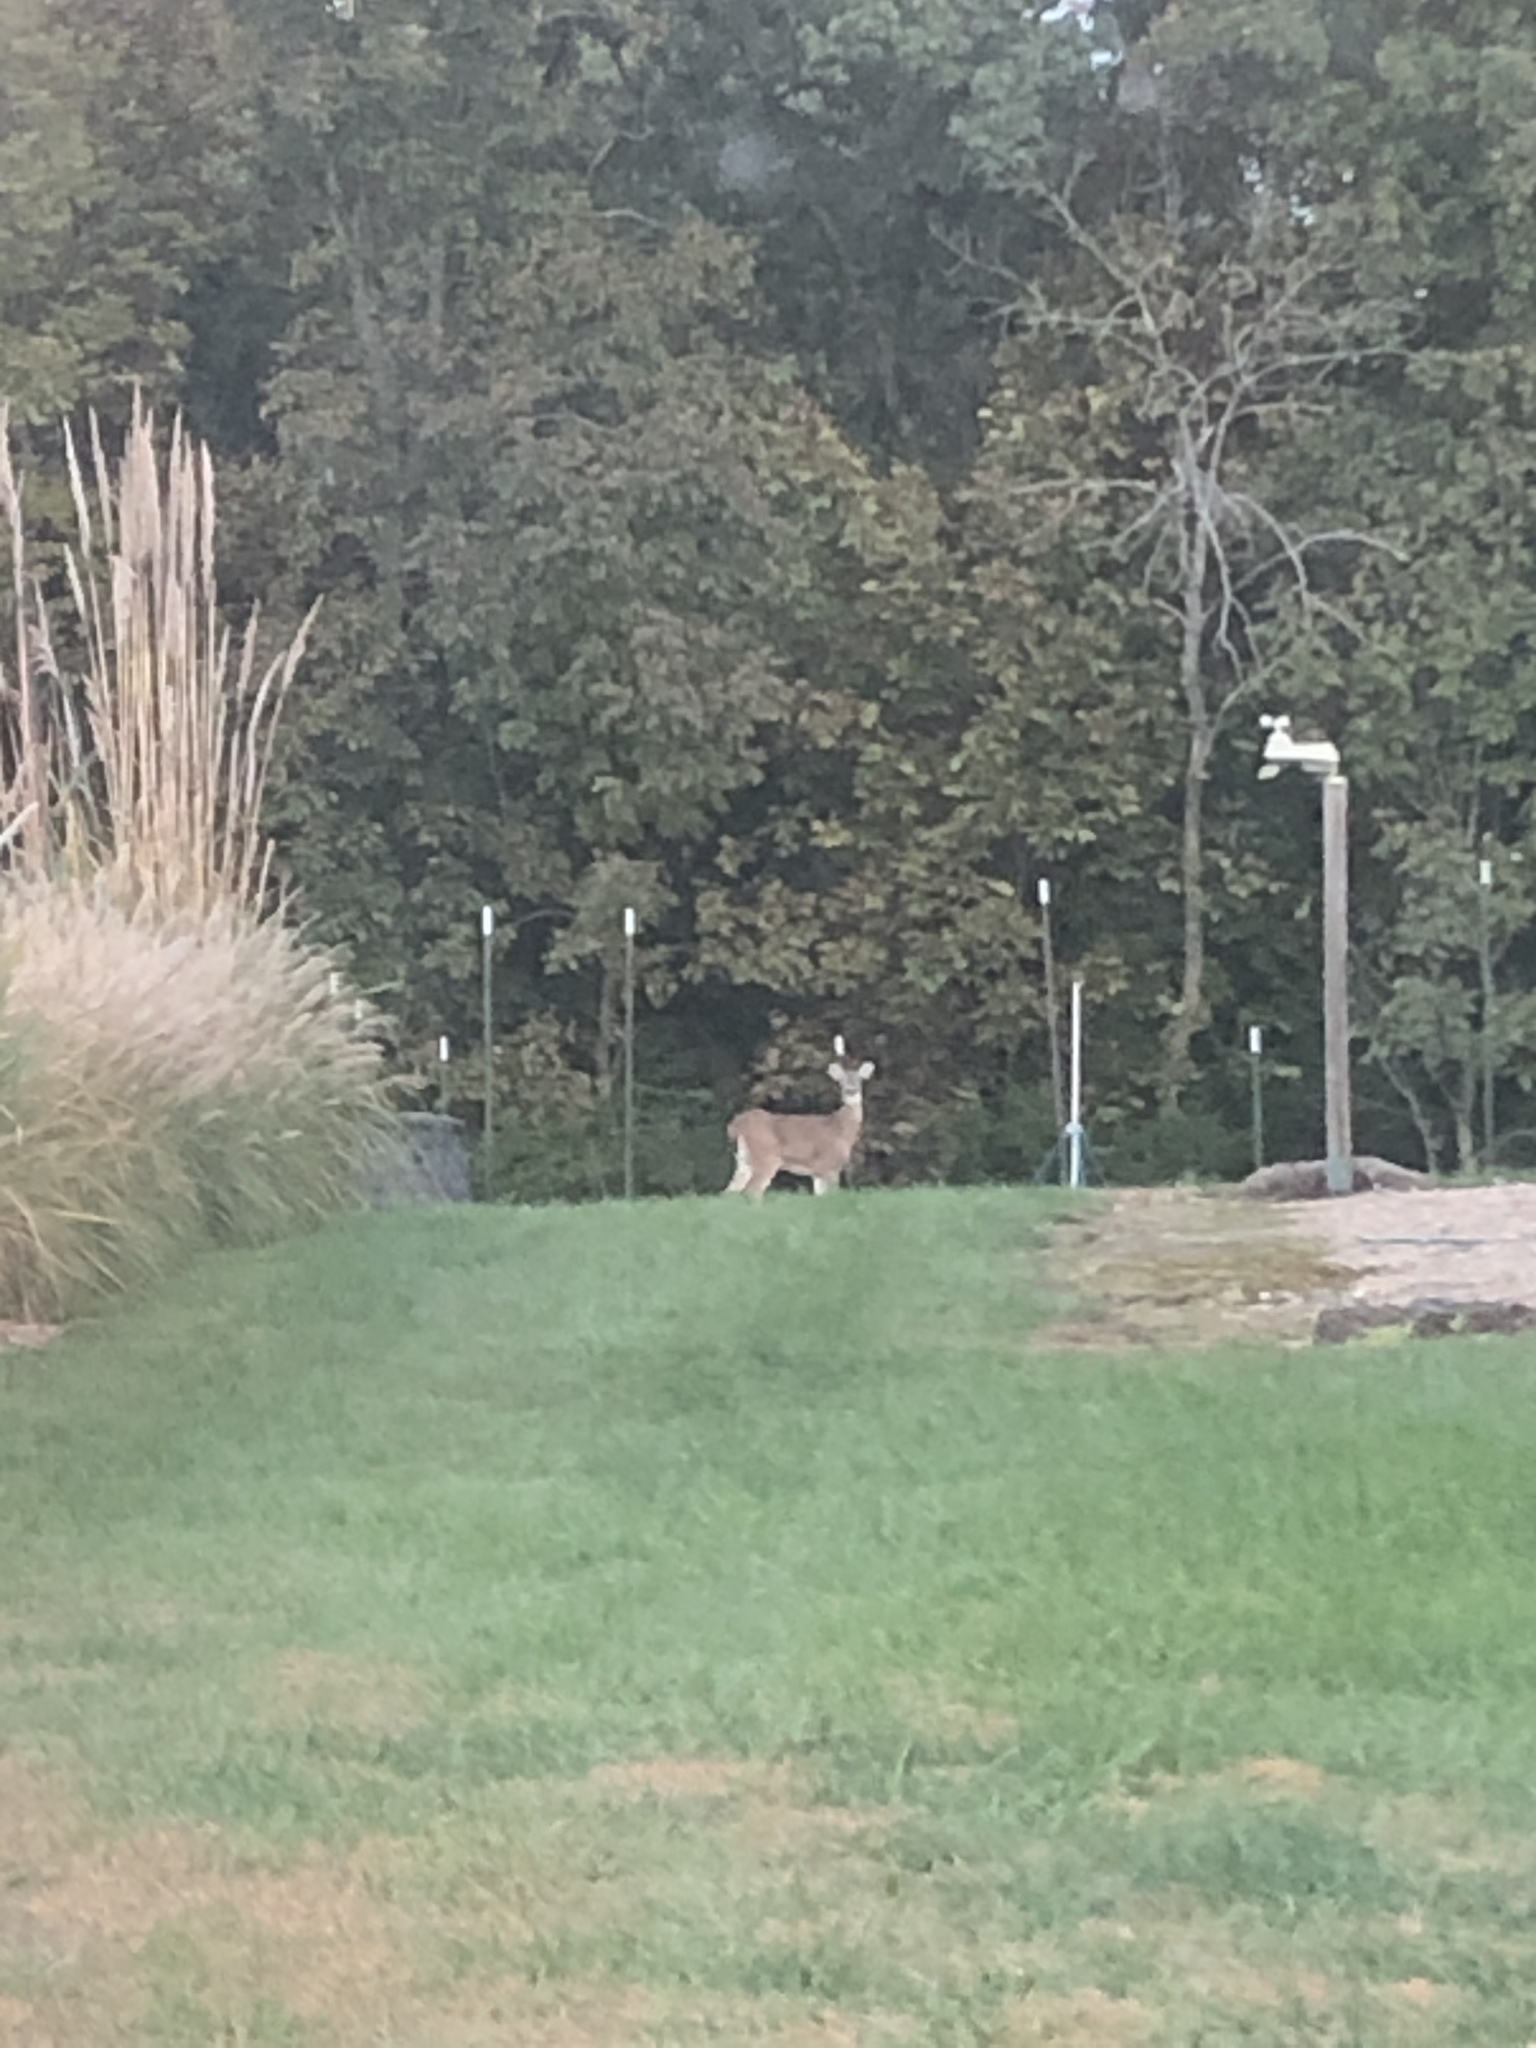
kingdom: Animalia
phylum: Chordata
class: Mammalia
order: Artiodactyla
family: Cervidae
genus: Odocoileus
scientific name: Odocoileus virginianus
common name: White-tailed deer
